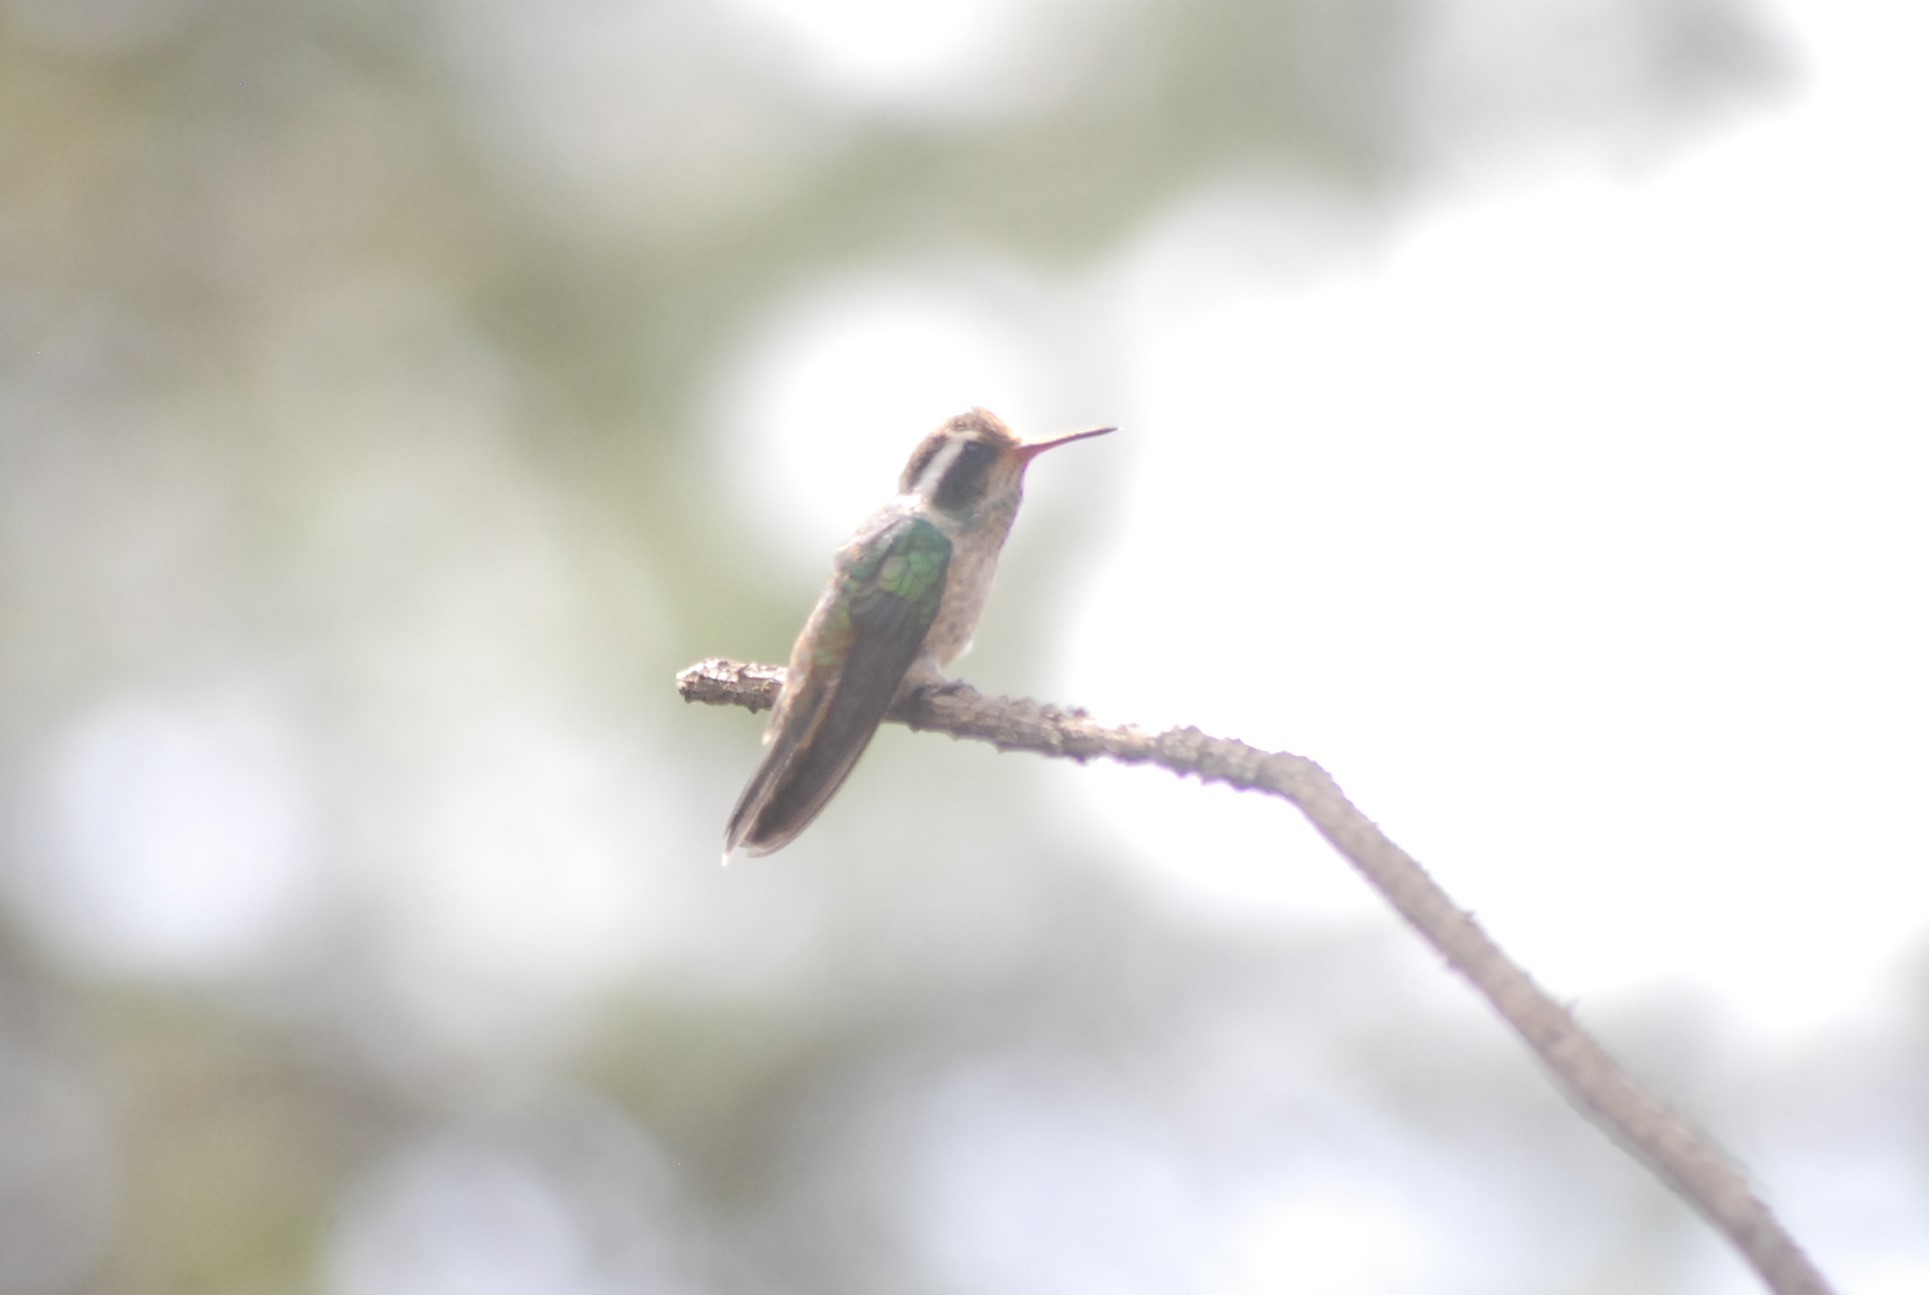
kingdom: Animalia
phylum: Chordata
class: Aves
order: Apodiformes
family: Trochilidae
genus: Basilinna
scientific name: Basilinna leucotis
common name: White-eared hummingbird
